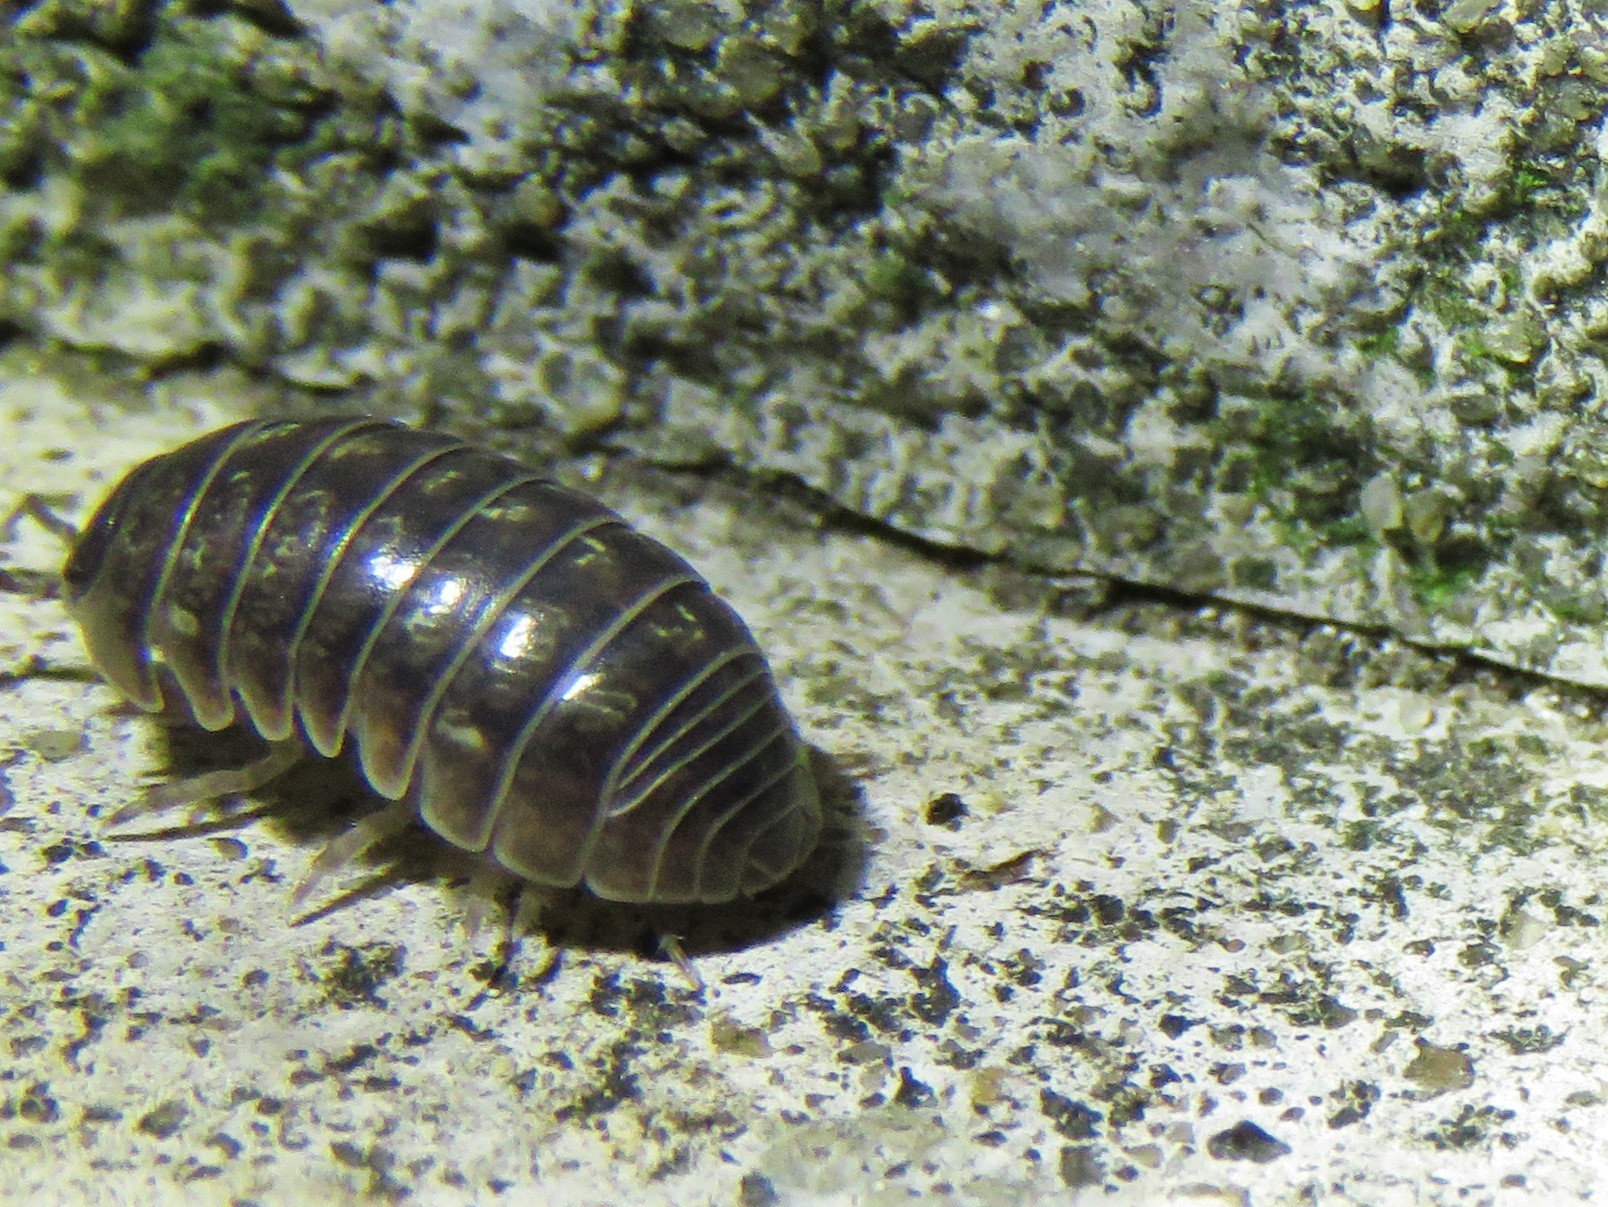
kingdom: Animalia
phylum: Arthropoda
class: Malacostraca
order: Isopoda
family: Armadillidiidae
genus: Armadillidium
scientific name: Armadillidium vulgare
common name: Common pill woodlouse
